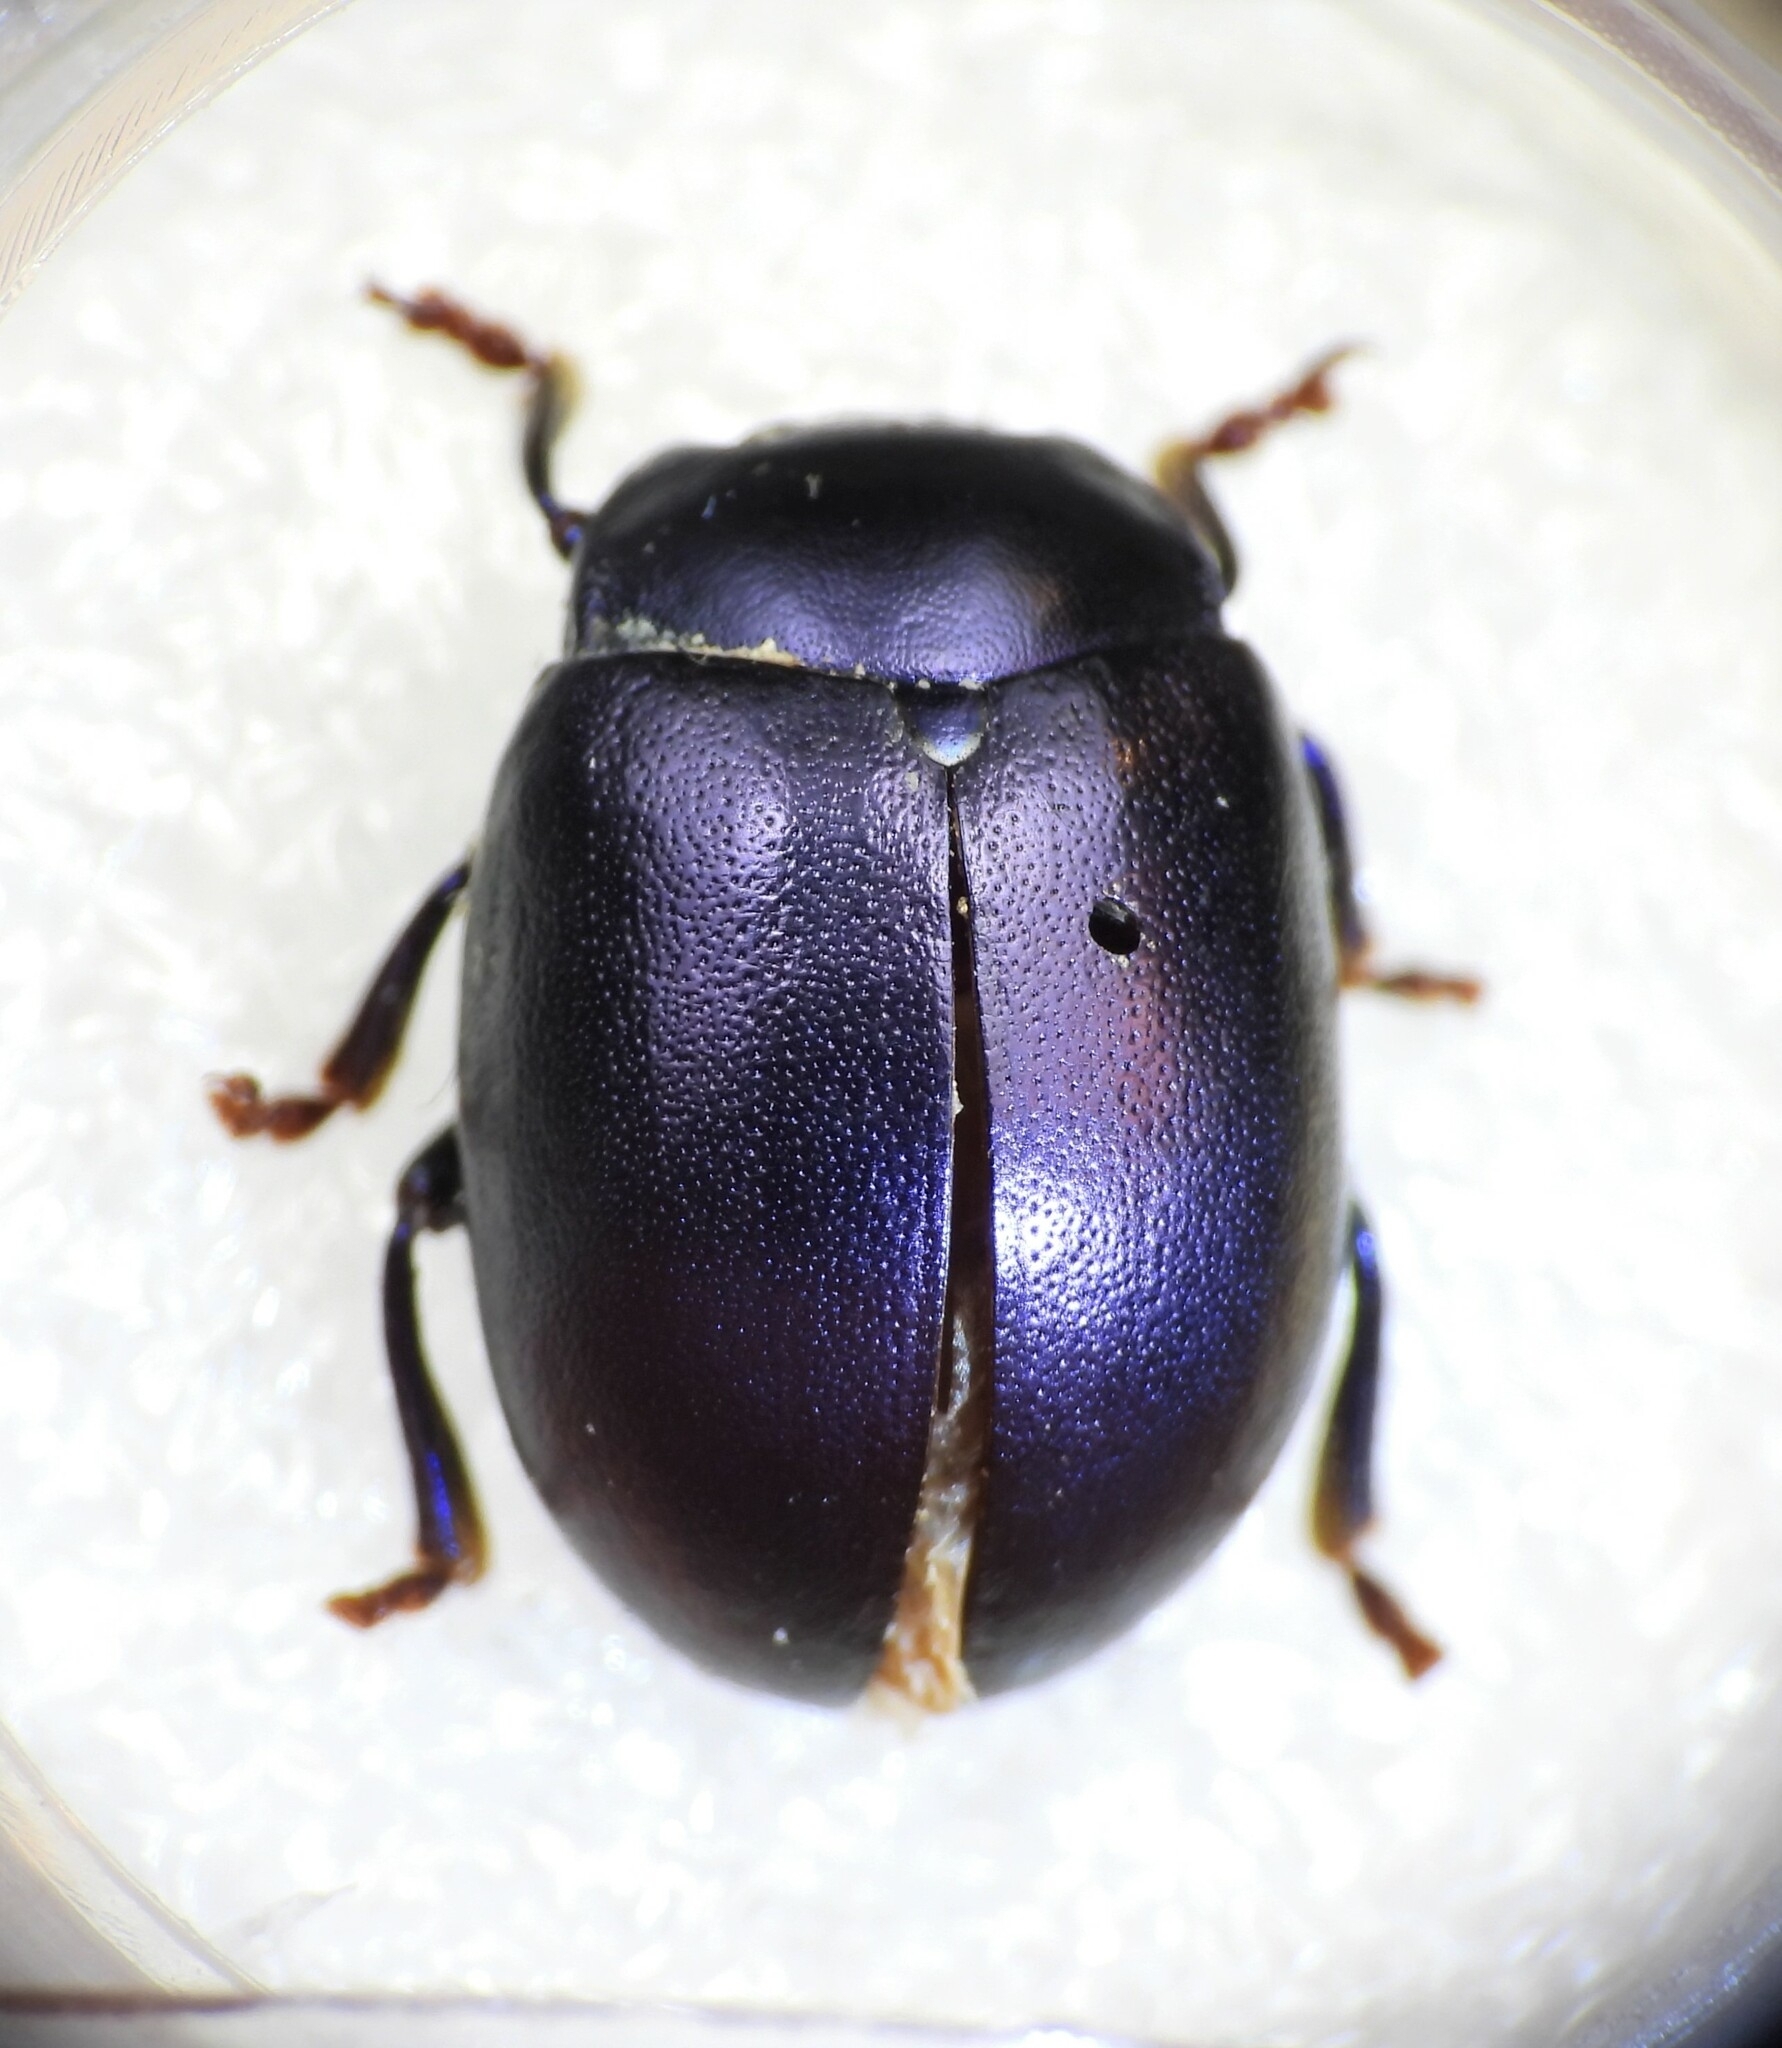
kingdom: Animalia
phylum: Arthropoda
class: Insecta
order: Coleoptera
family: Chrysomelidae
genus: Chrysolina
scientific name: Chrysolina sturmi
